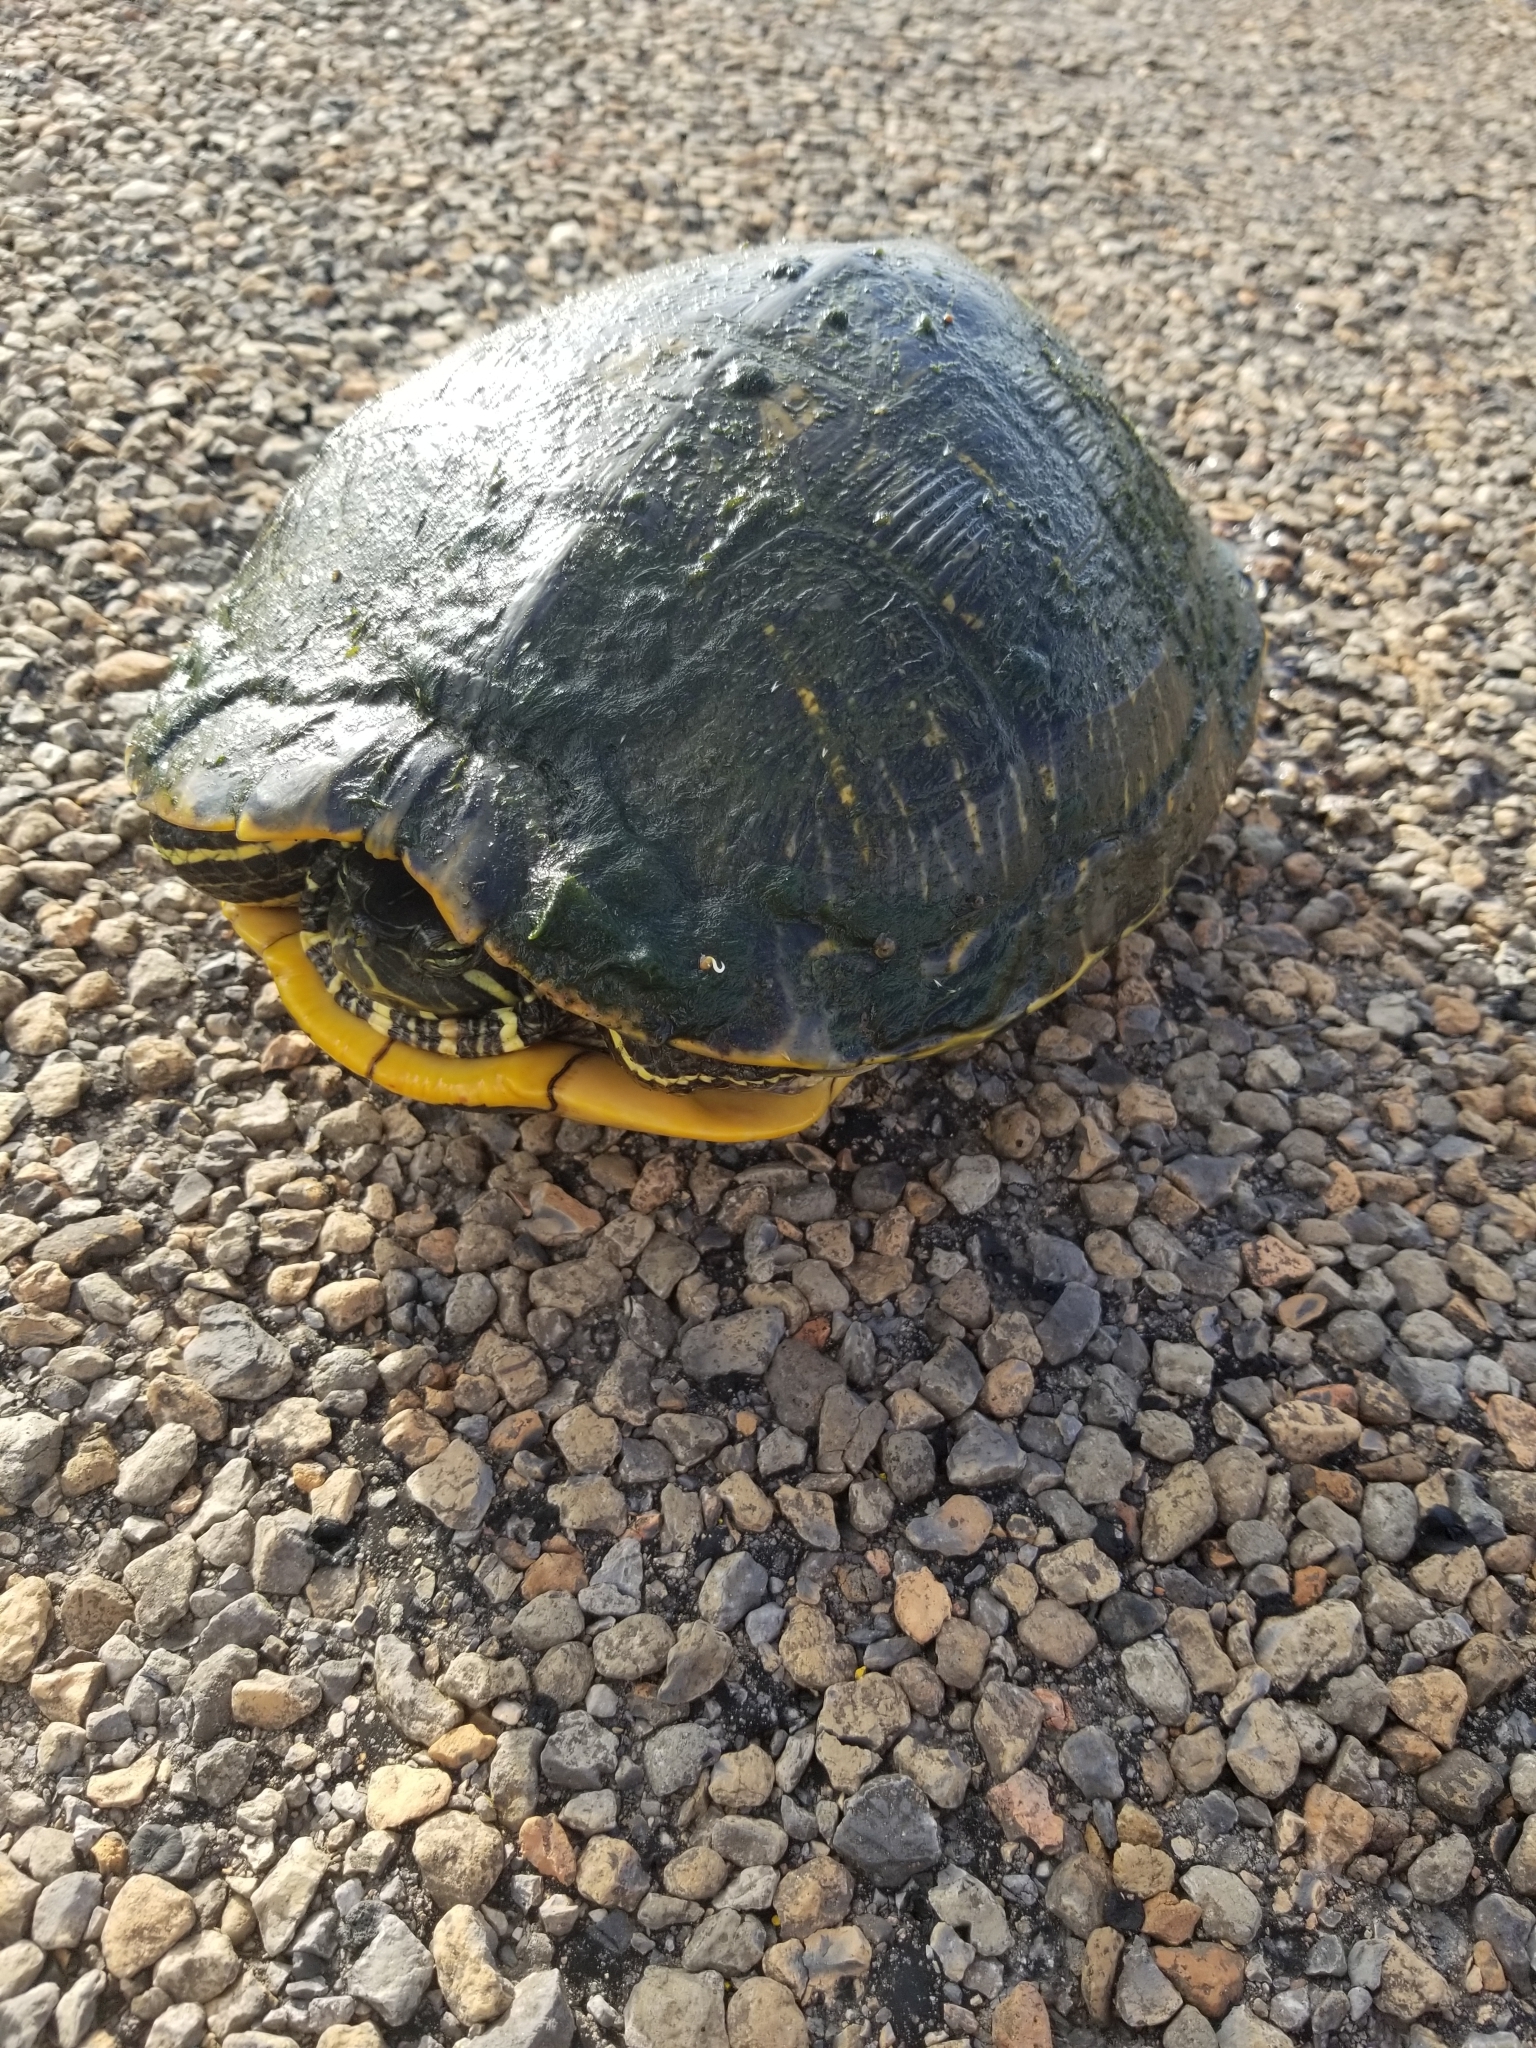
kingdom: Animalia
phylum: Chordata
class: Testudines
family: Emydidae
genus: Trachemys
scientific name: Trachemys scripta
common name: Slider
